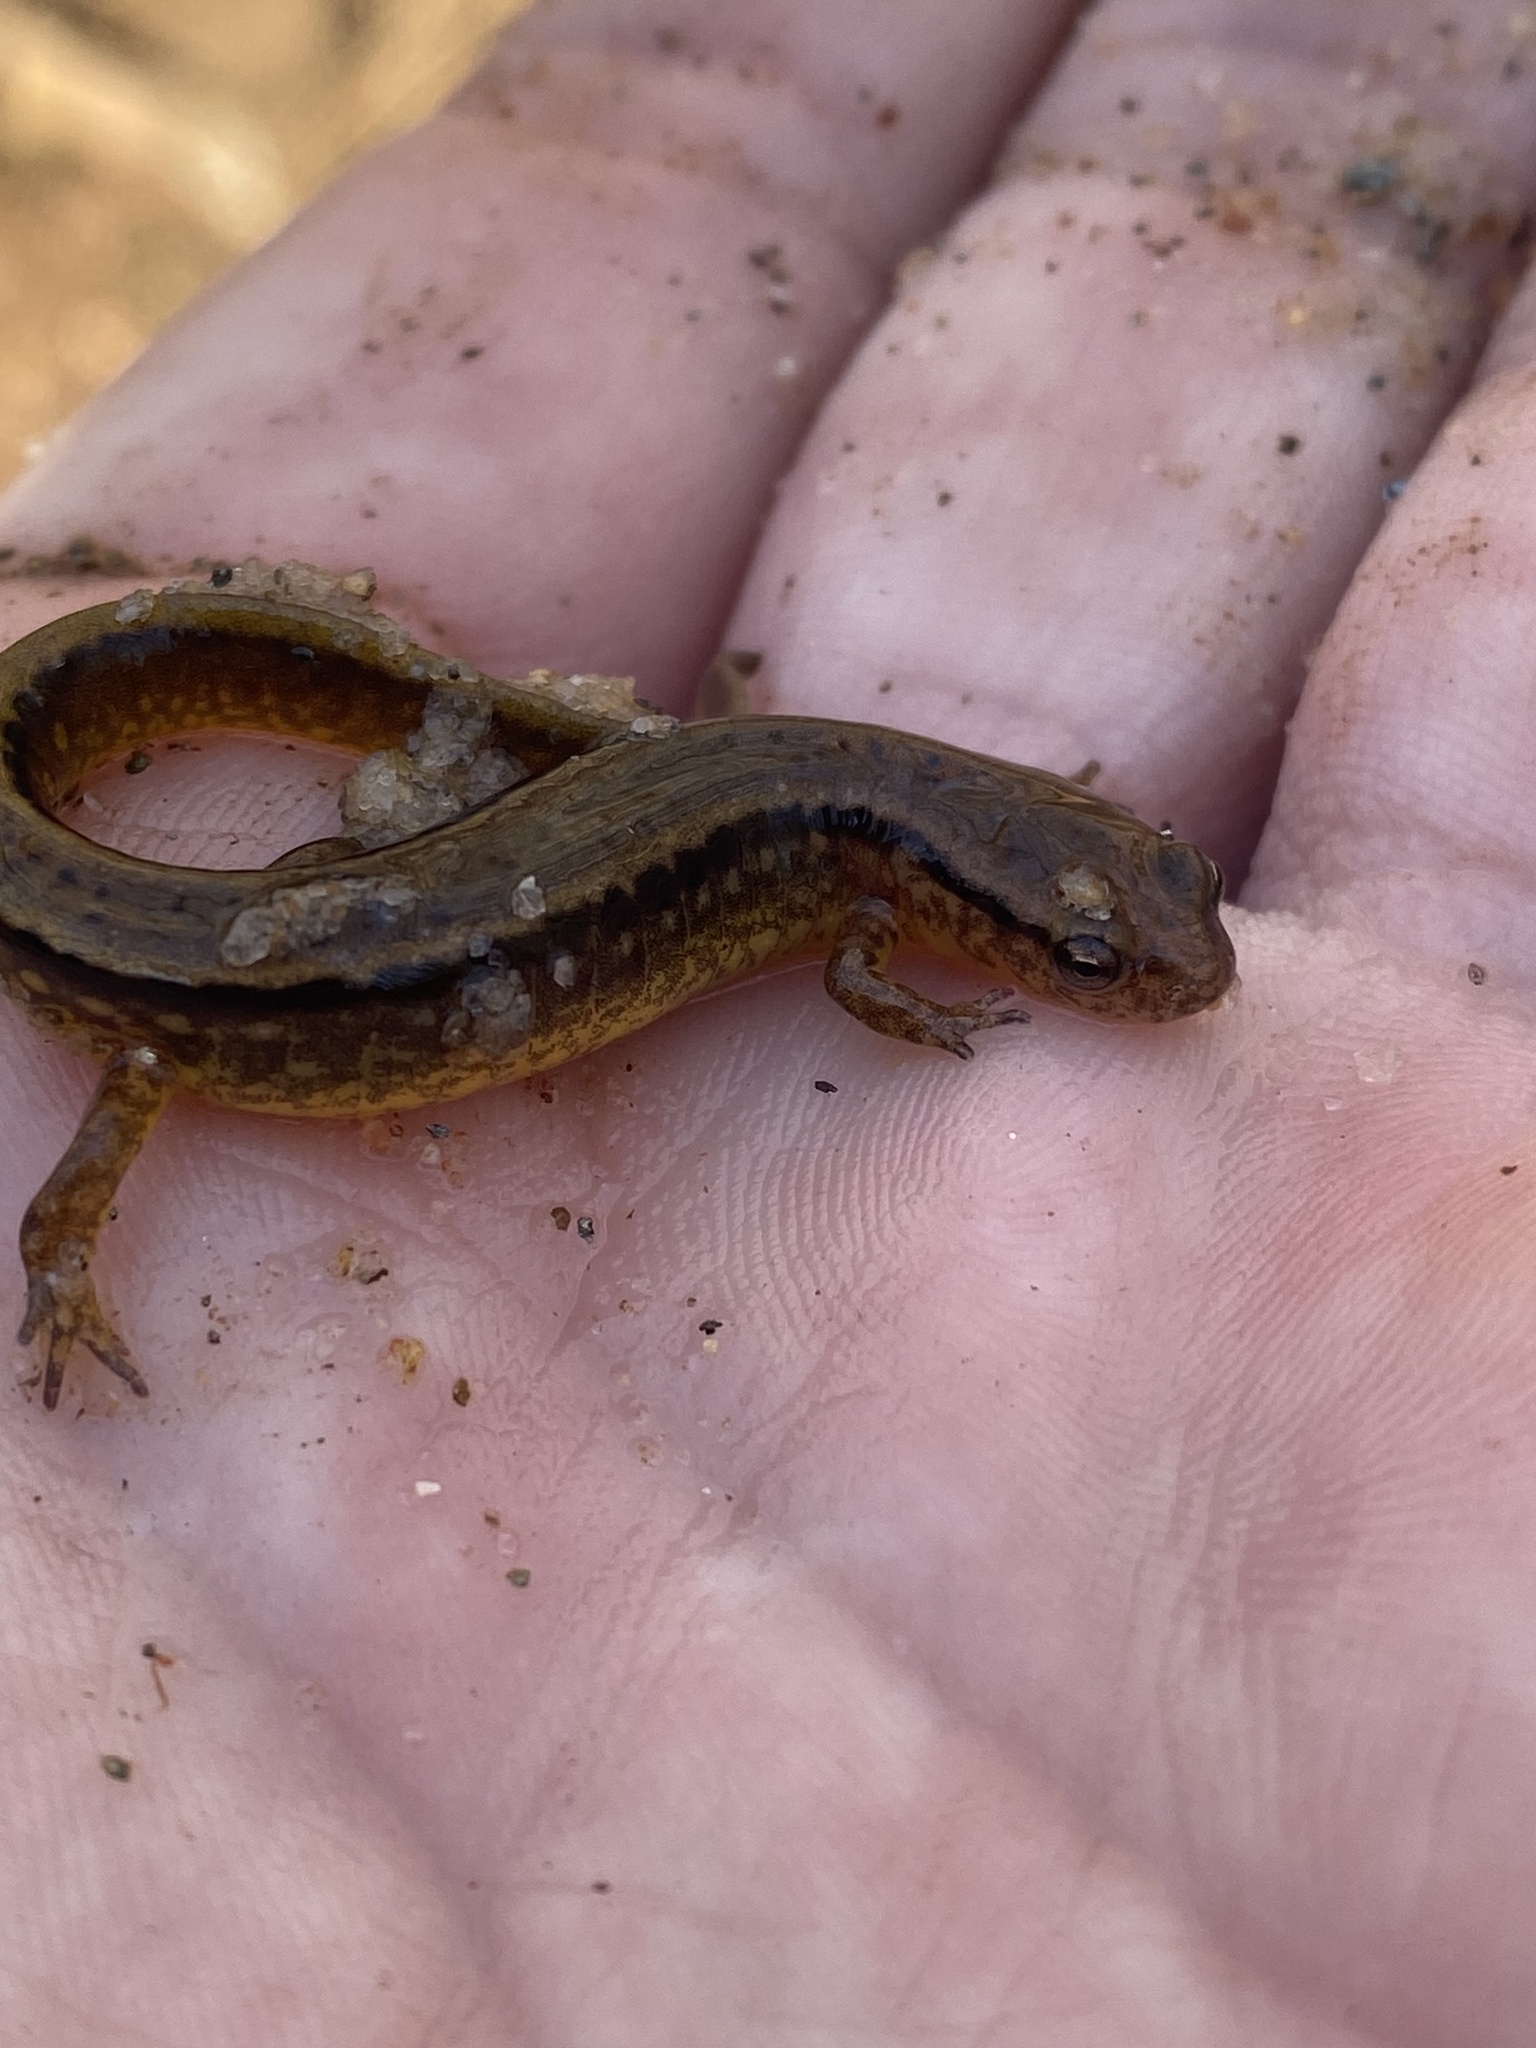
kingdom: Animalia
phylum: Chordata
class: Amphibia
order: Caudata
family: Plethodontidae
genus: Eurycea
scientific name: Eurycea cirrigera
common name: Southern two-lined salamander
